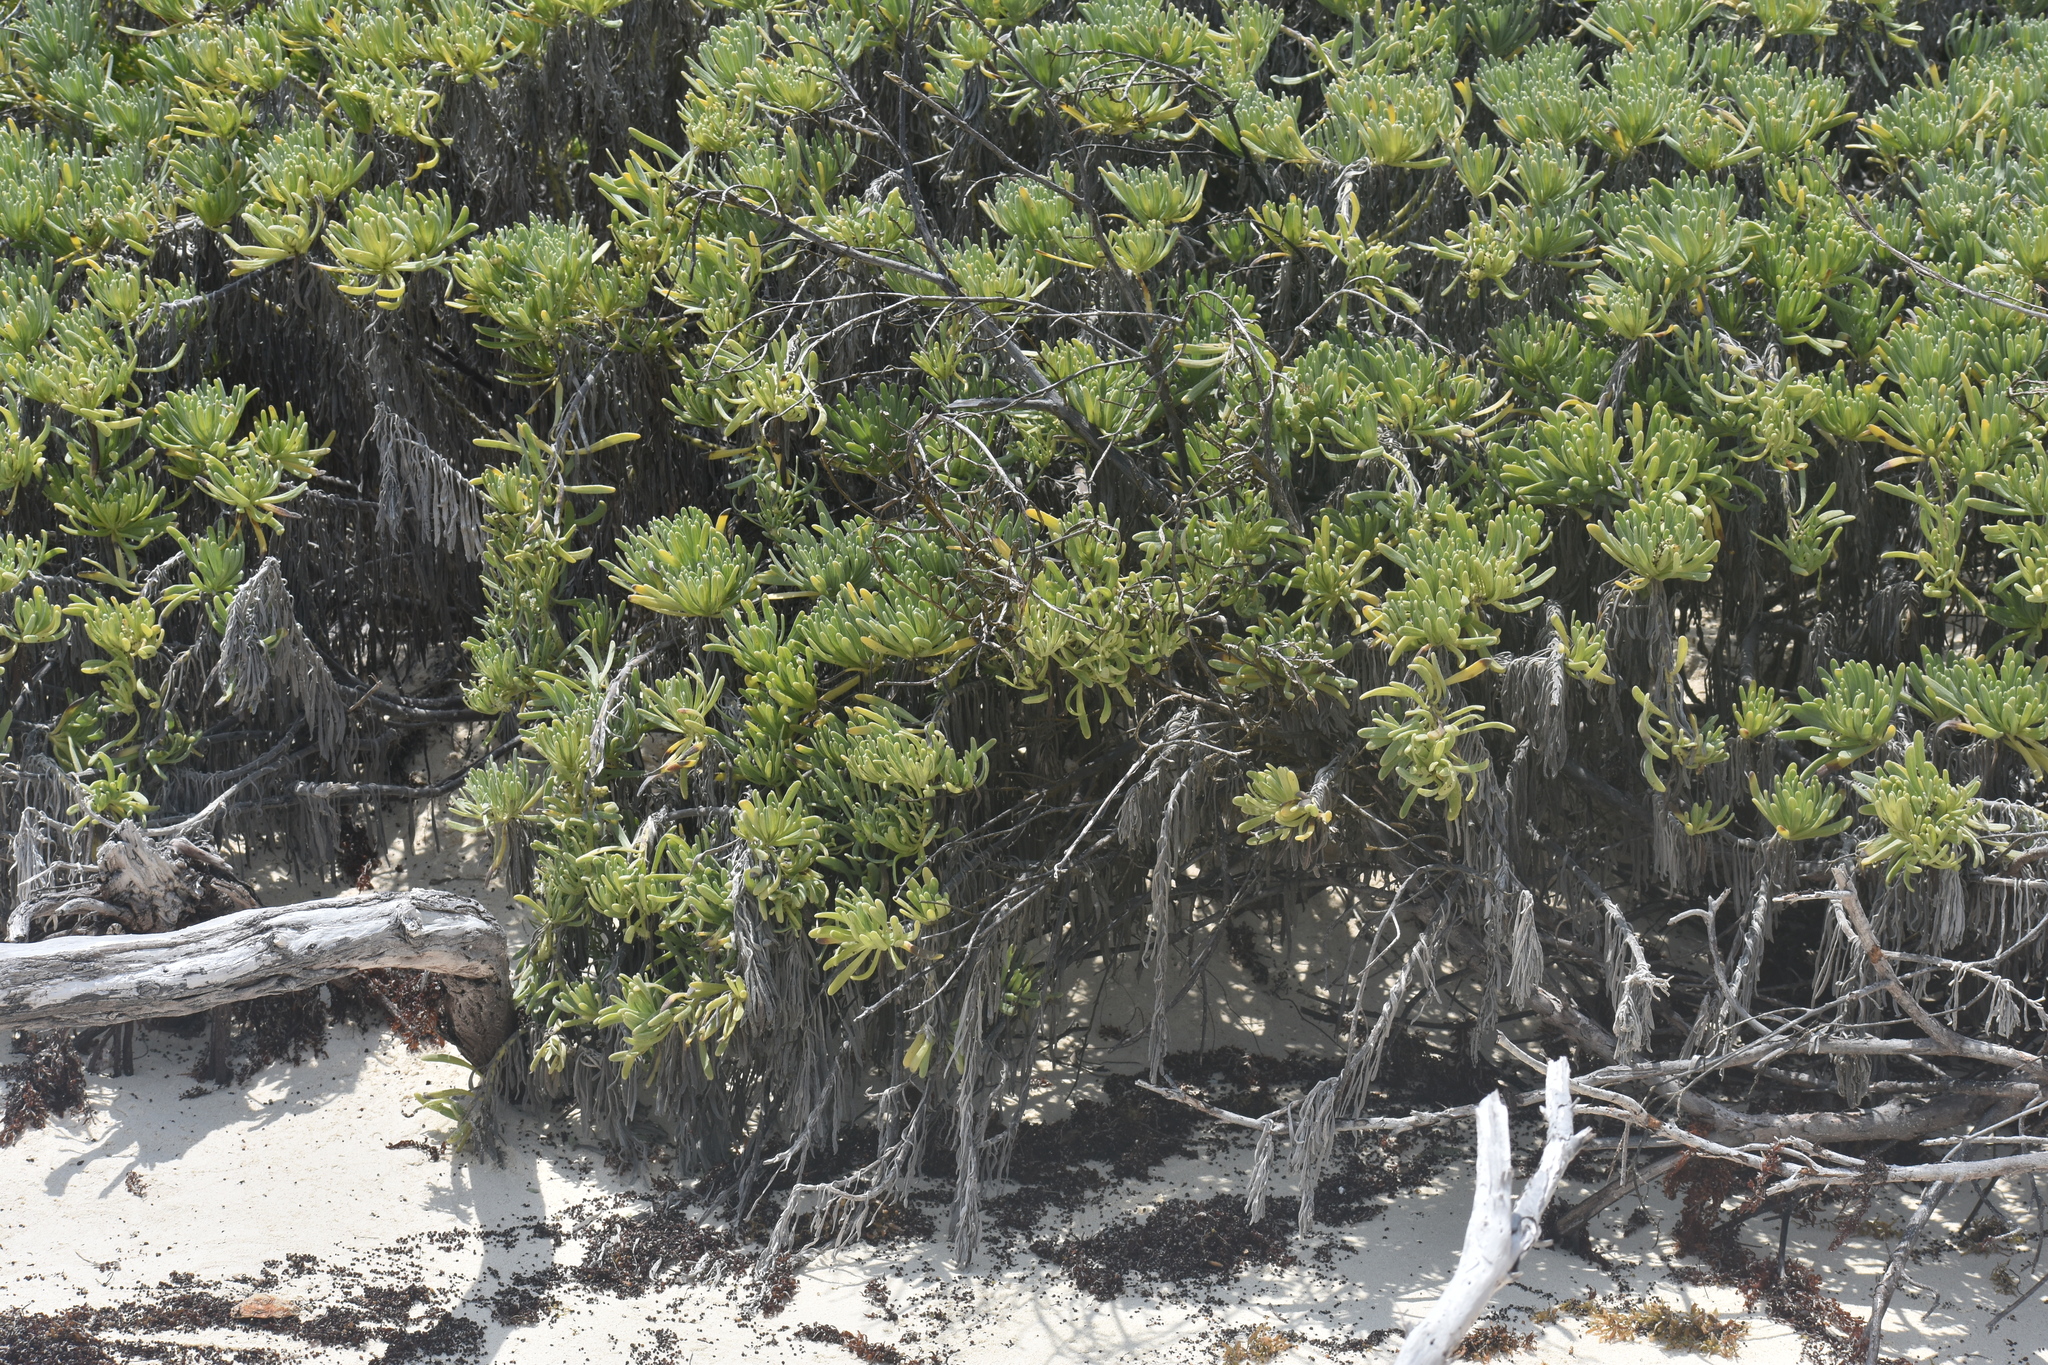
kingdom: Plantae
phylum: Tracheophyta
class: Magnoliopsida
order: Boraginales
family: Heliotropiaceae
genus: Tournefortia
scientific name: Tournefortia gnaphalodes
